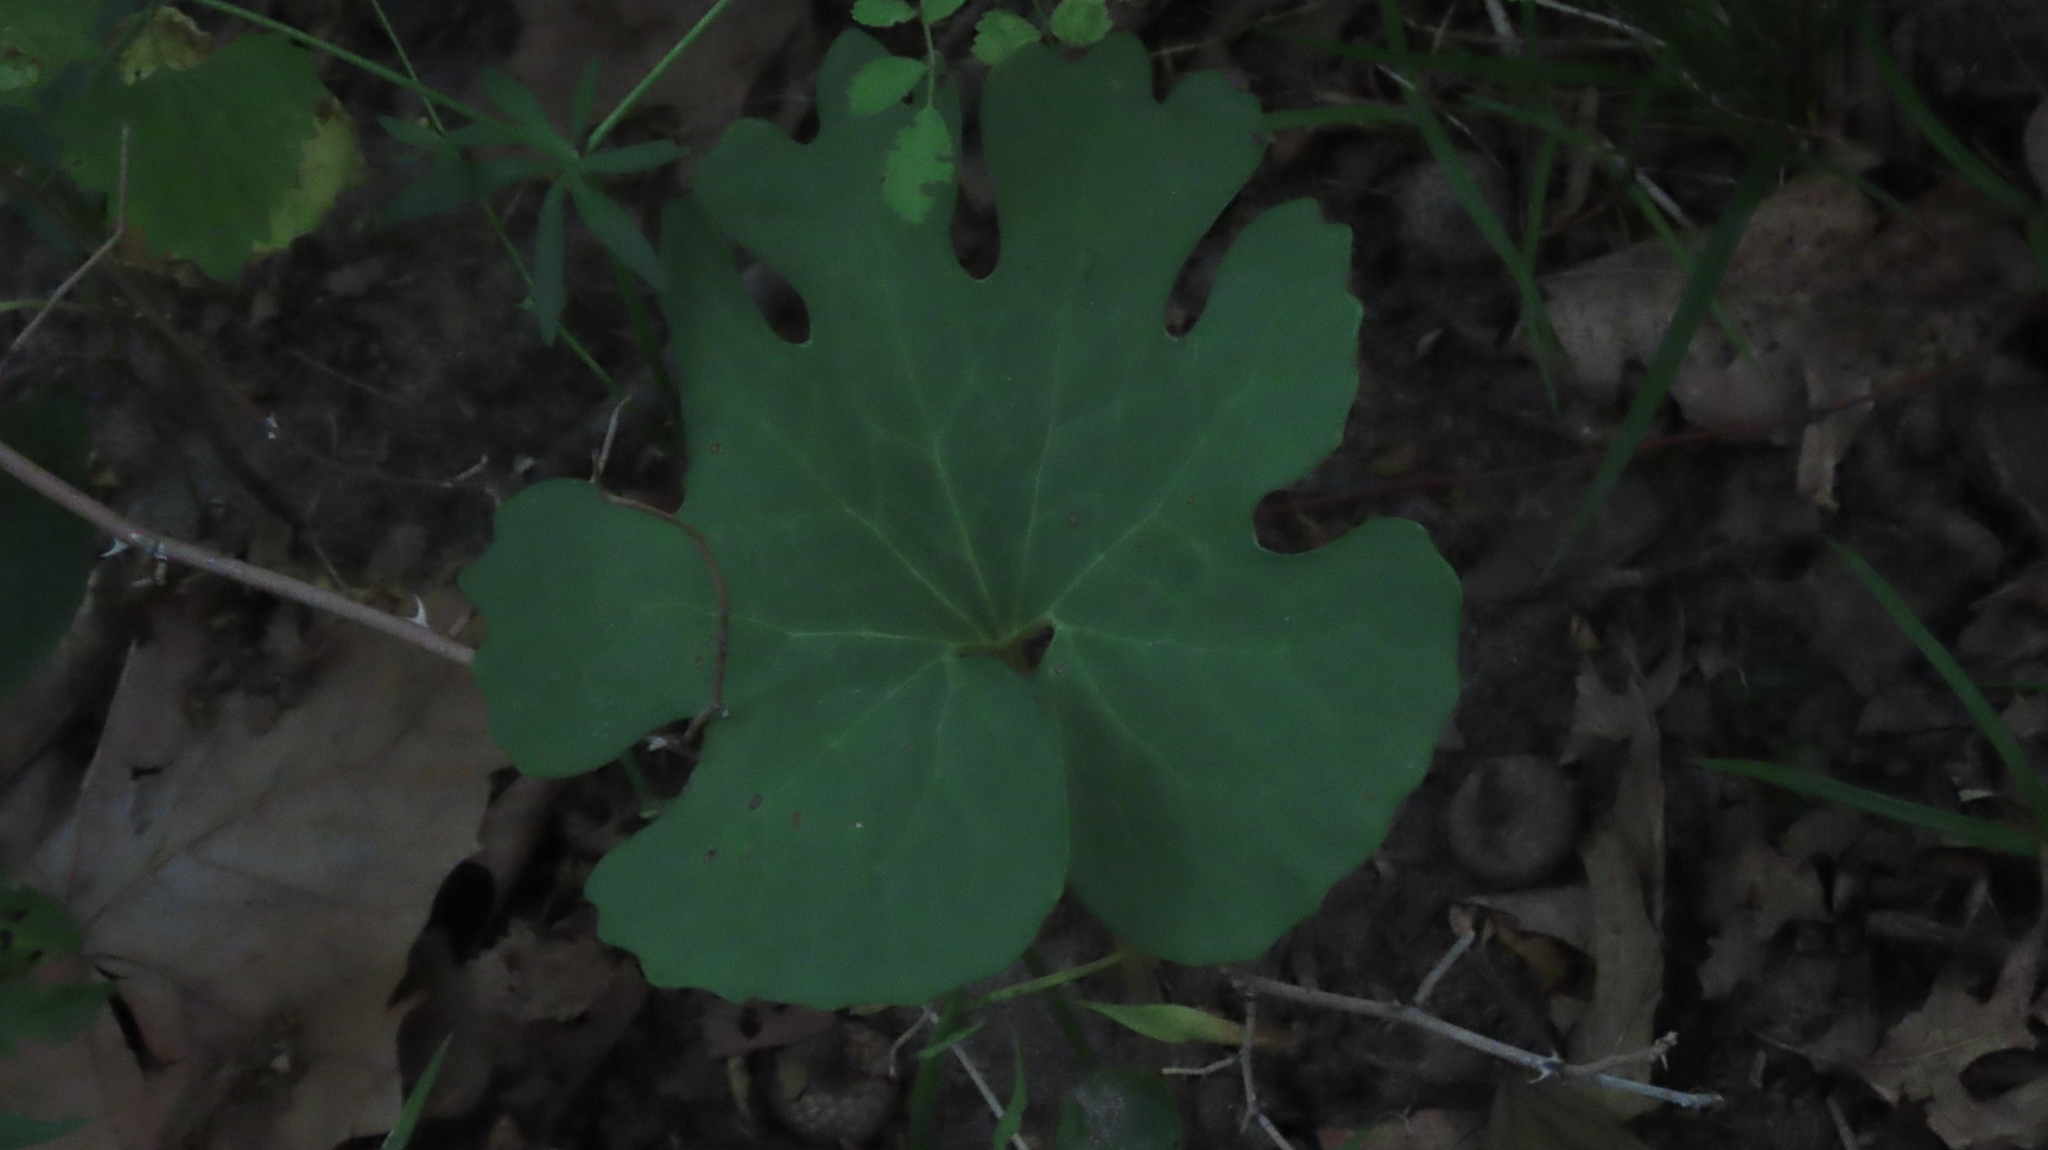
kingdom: Plantae
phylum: Tracheophyta
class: Magnoliopsida
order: Ranunculales
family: Papaveraceae
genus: Sanguinaria
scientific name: Sanguinaria canadensis
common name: Bloodroot
